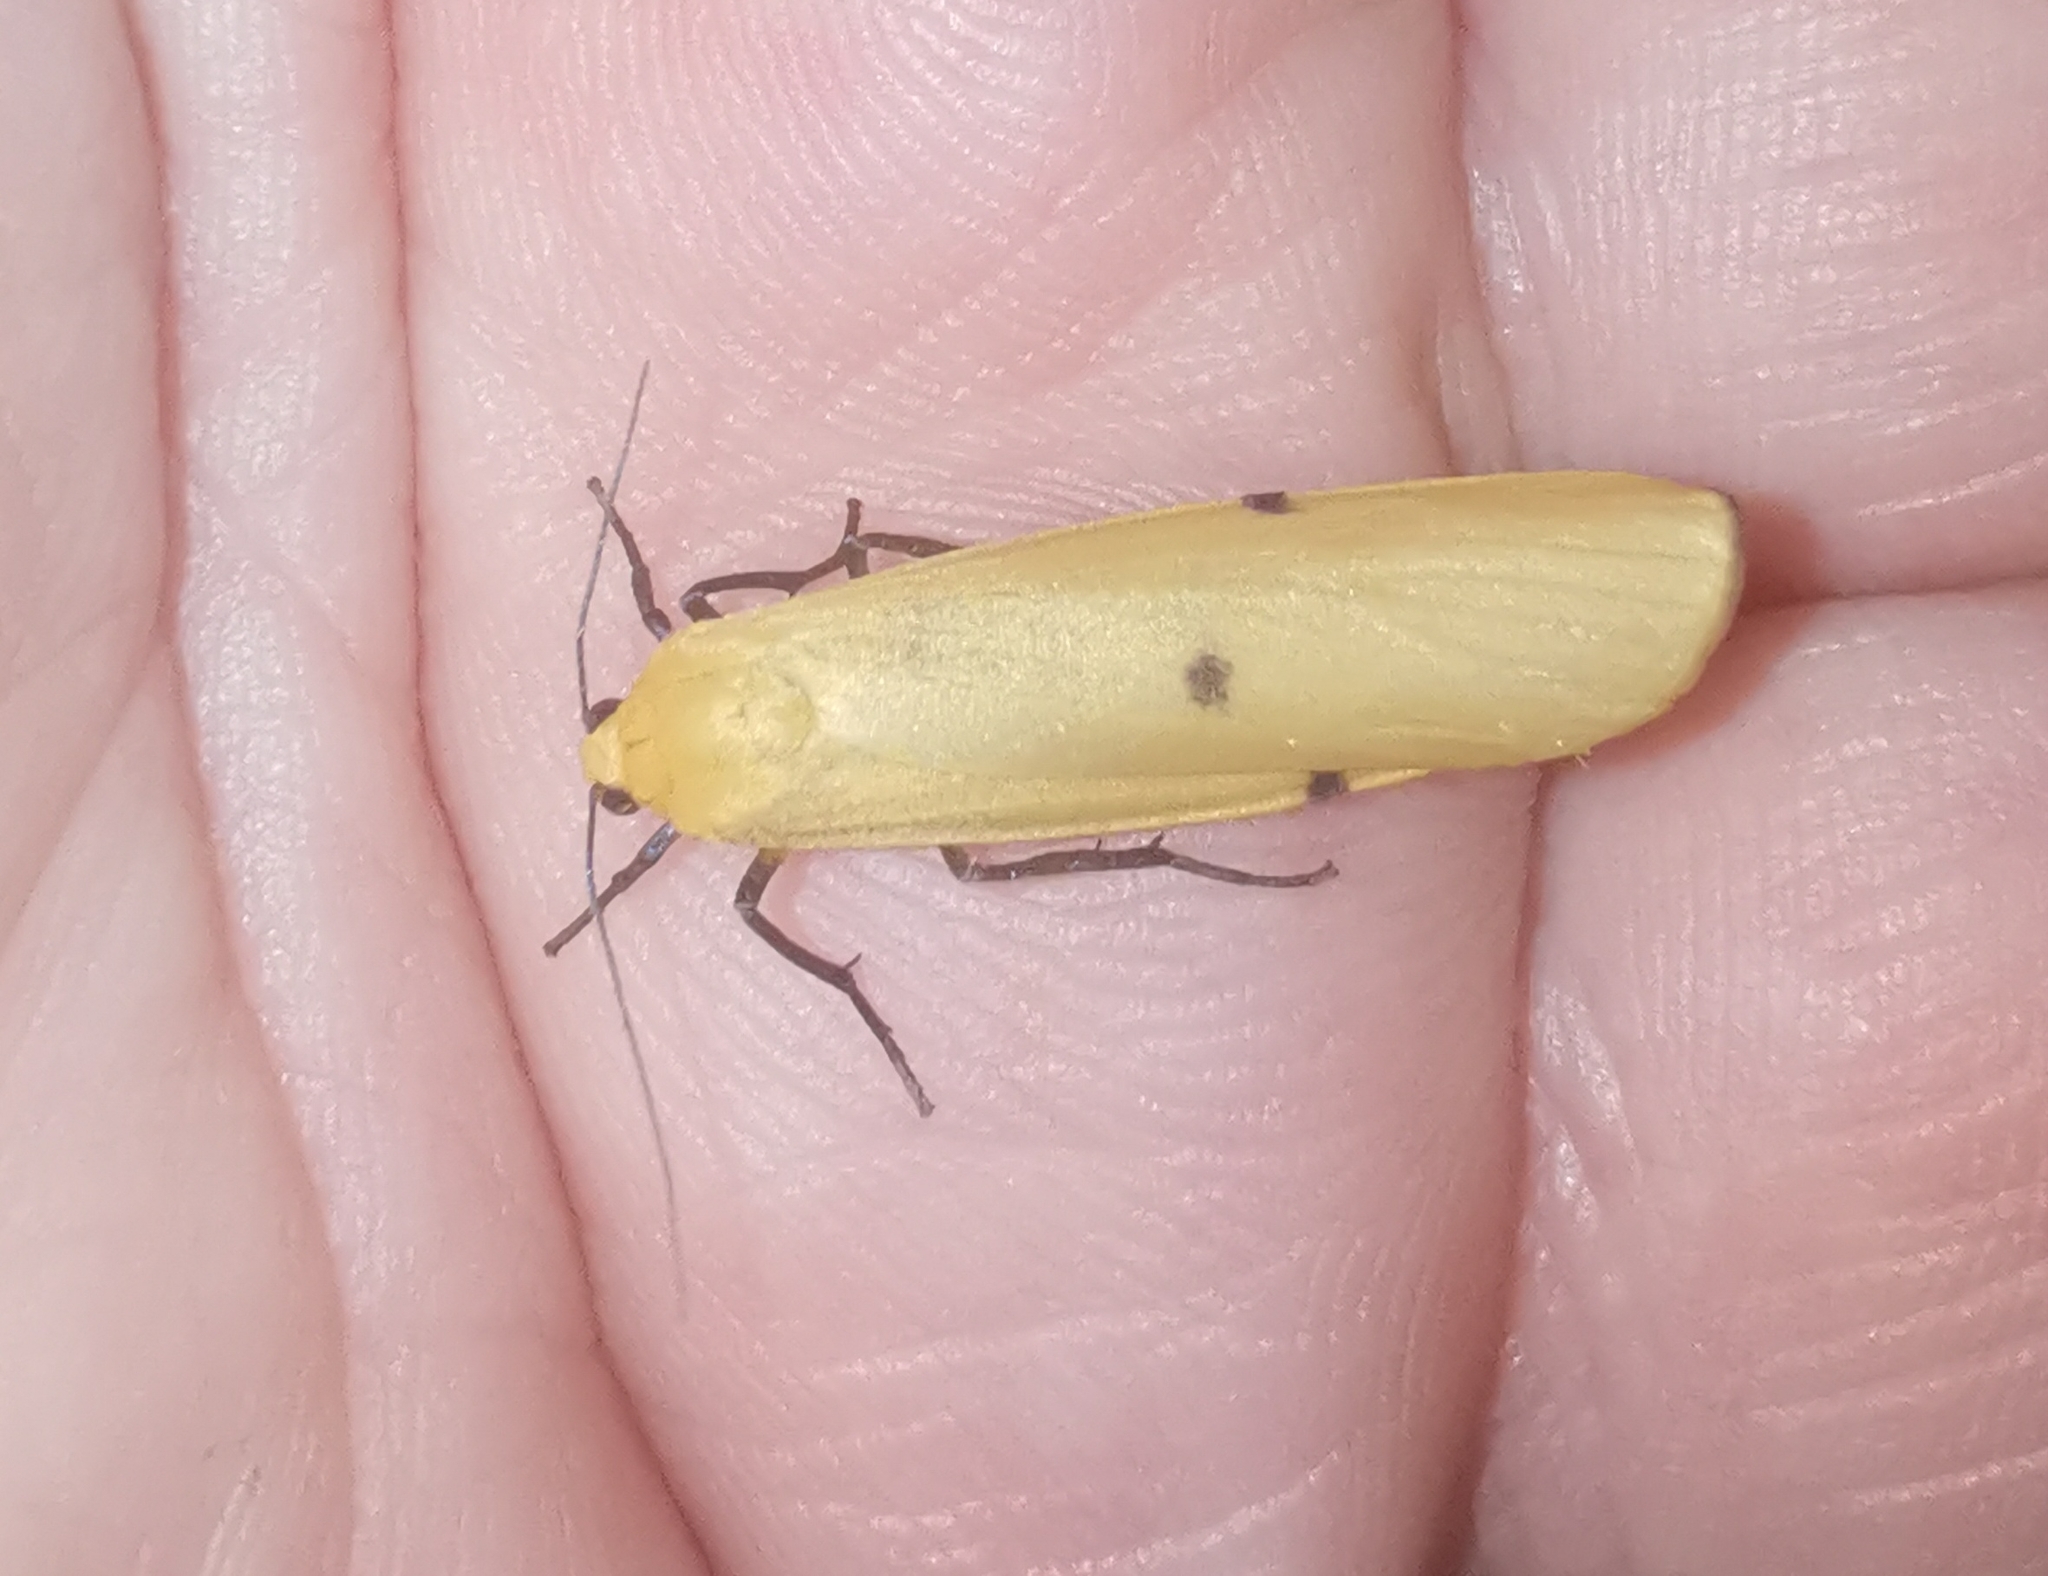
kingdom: Animalia
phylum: Arthropoda
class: Insecta
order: Lepidoptera
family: Erebidae
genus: Lithosia
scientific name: Lithosia quadra
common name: Four-spotted footman
